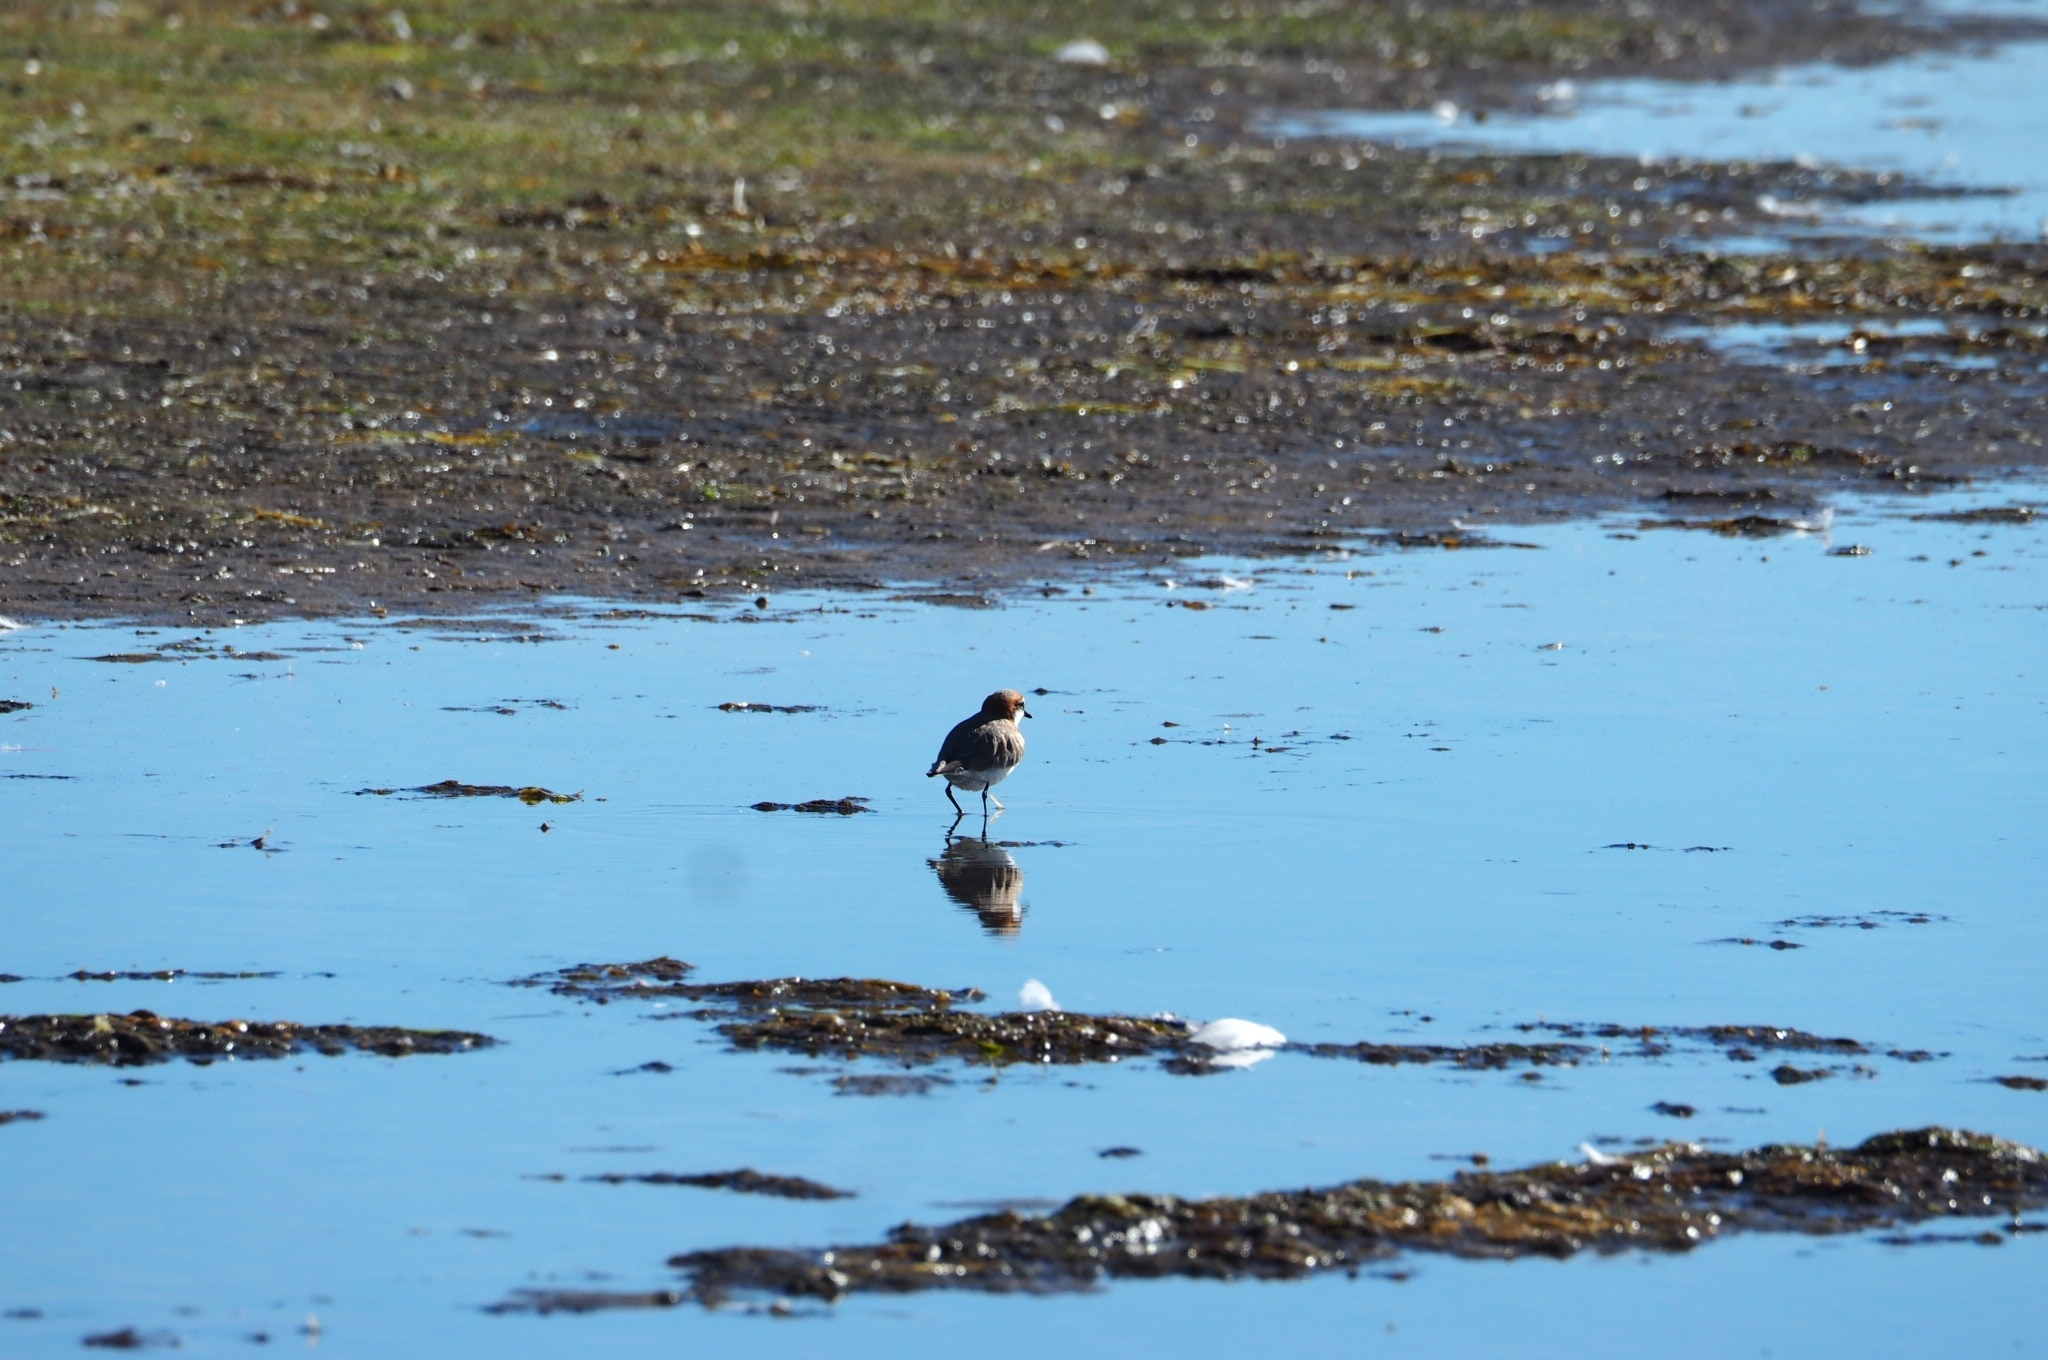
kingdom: Animalia
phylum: Chordata
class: Aves
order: Charadriiformes
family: Charadriidae
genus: Anarhynchus
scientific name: Anarhynchus
